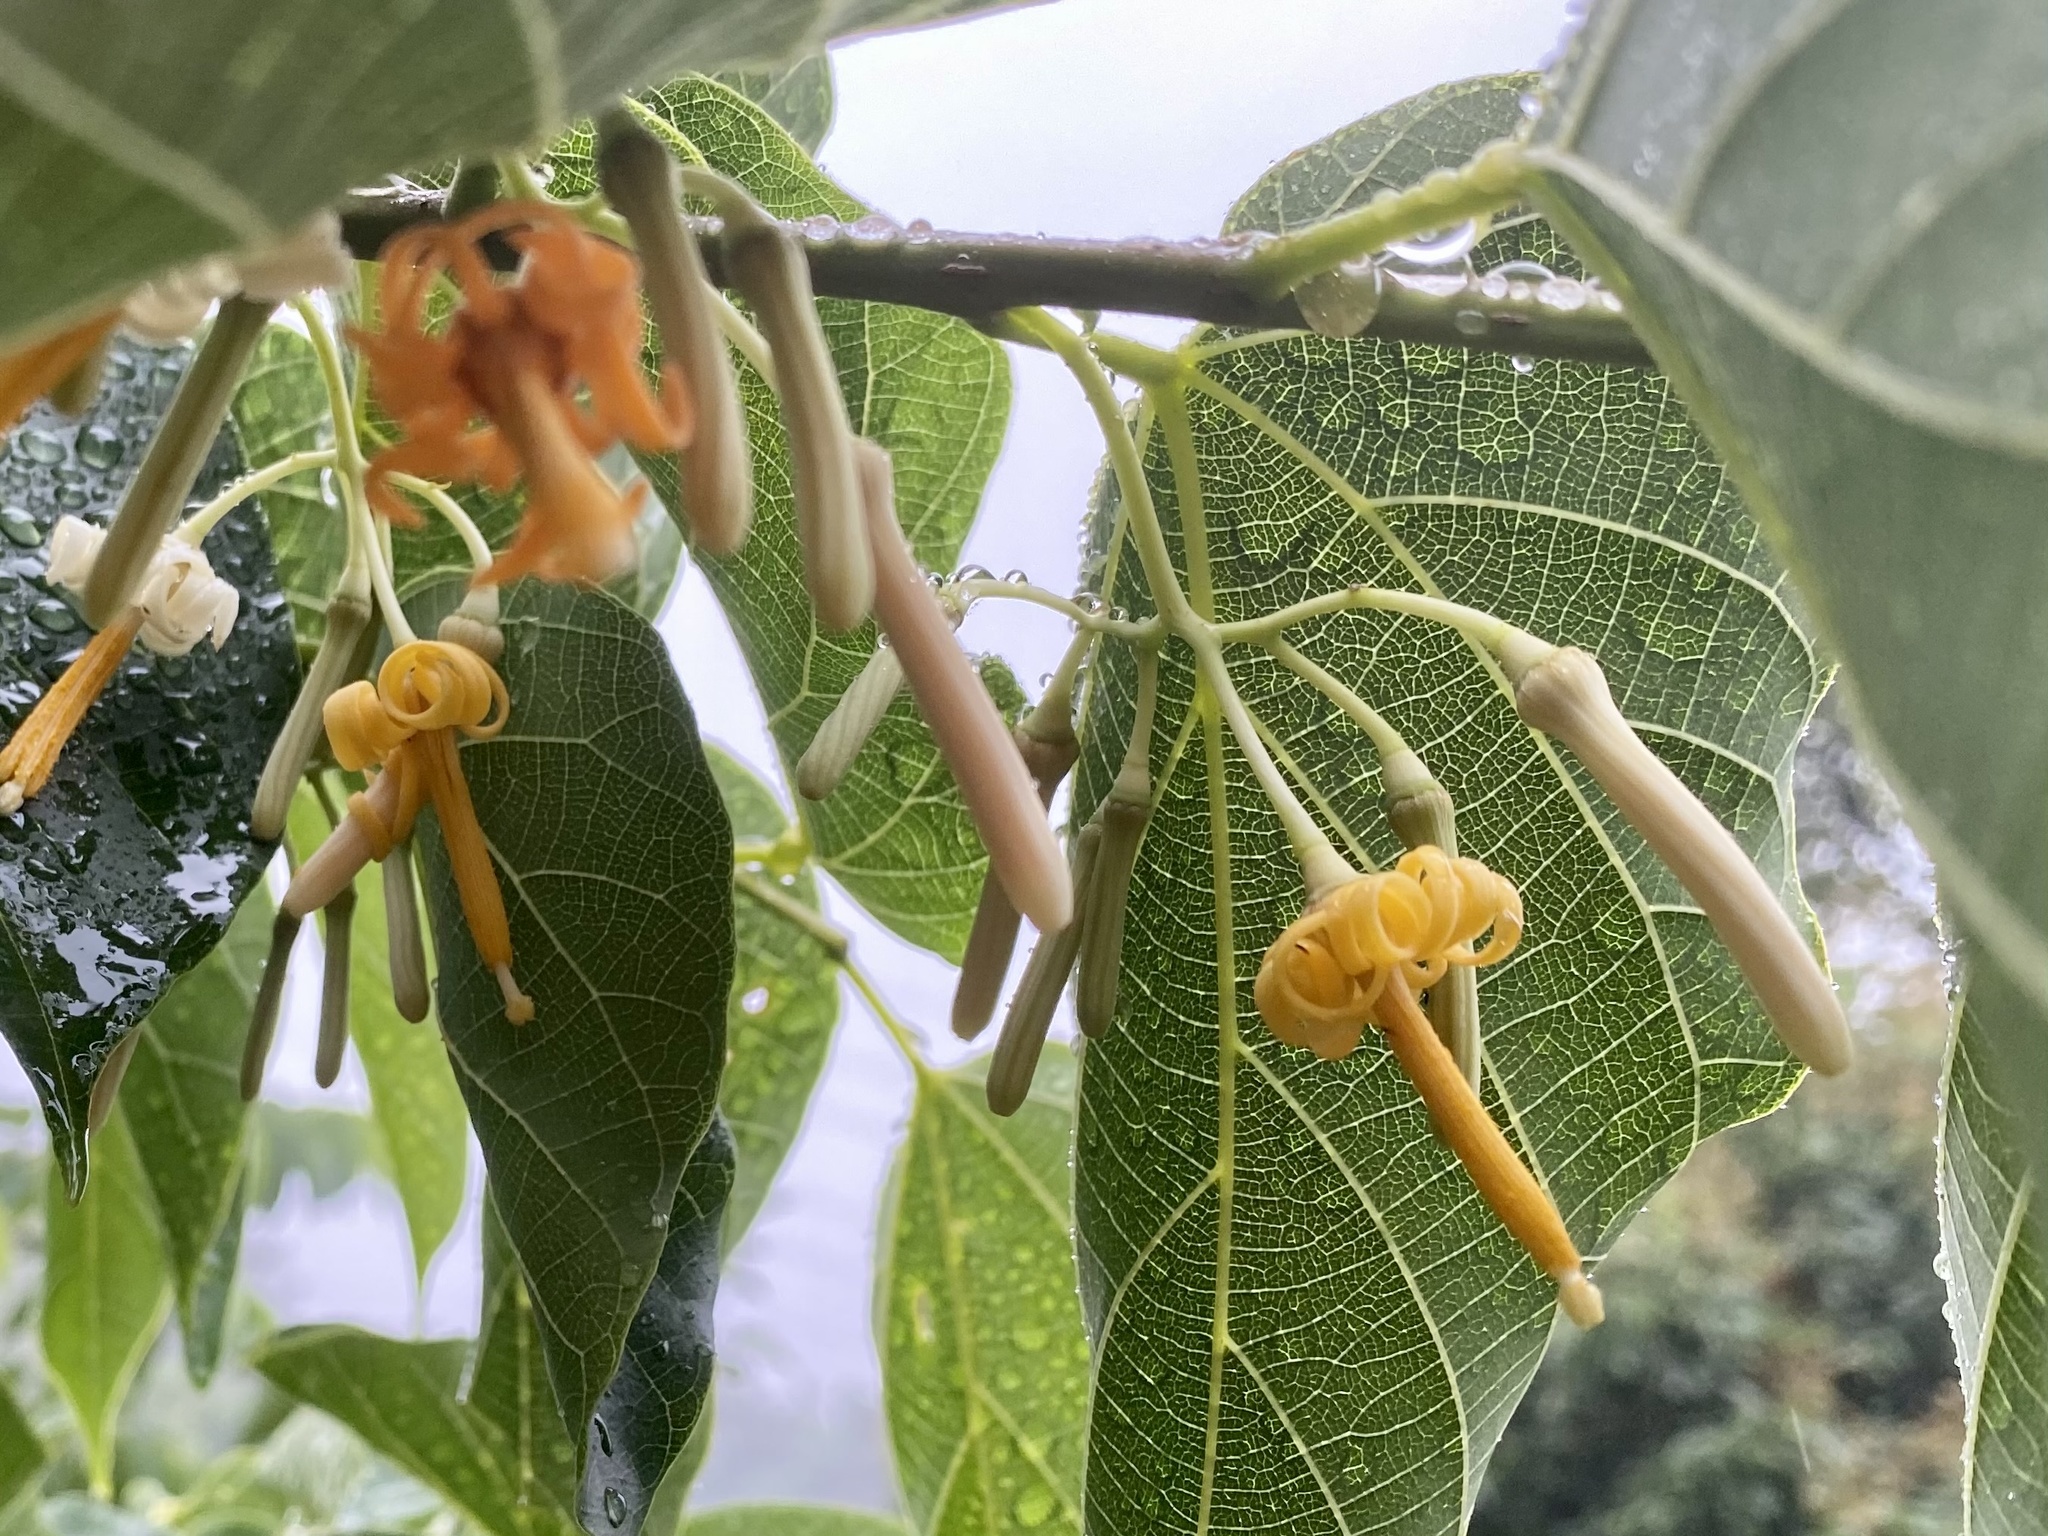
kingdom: Plantae
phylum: Tracheophyta
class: Magnoliopsida
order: Cornales
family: Cornaceae
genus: Alangium
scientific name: Alangium chinense
